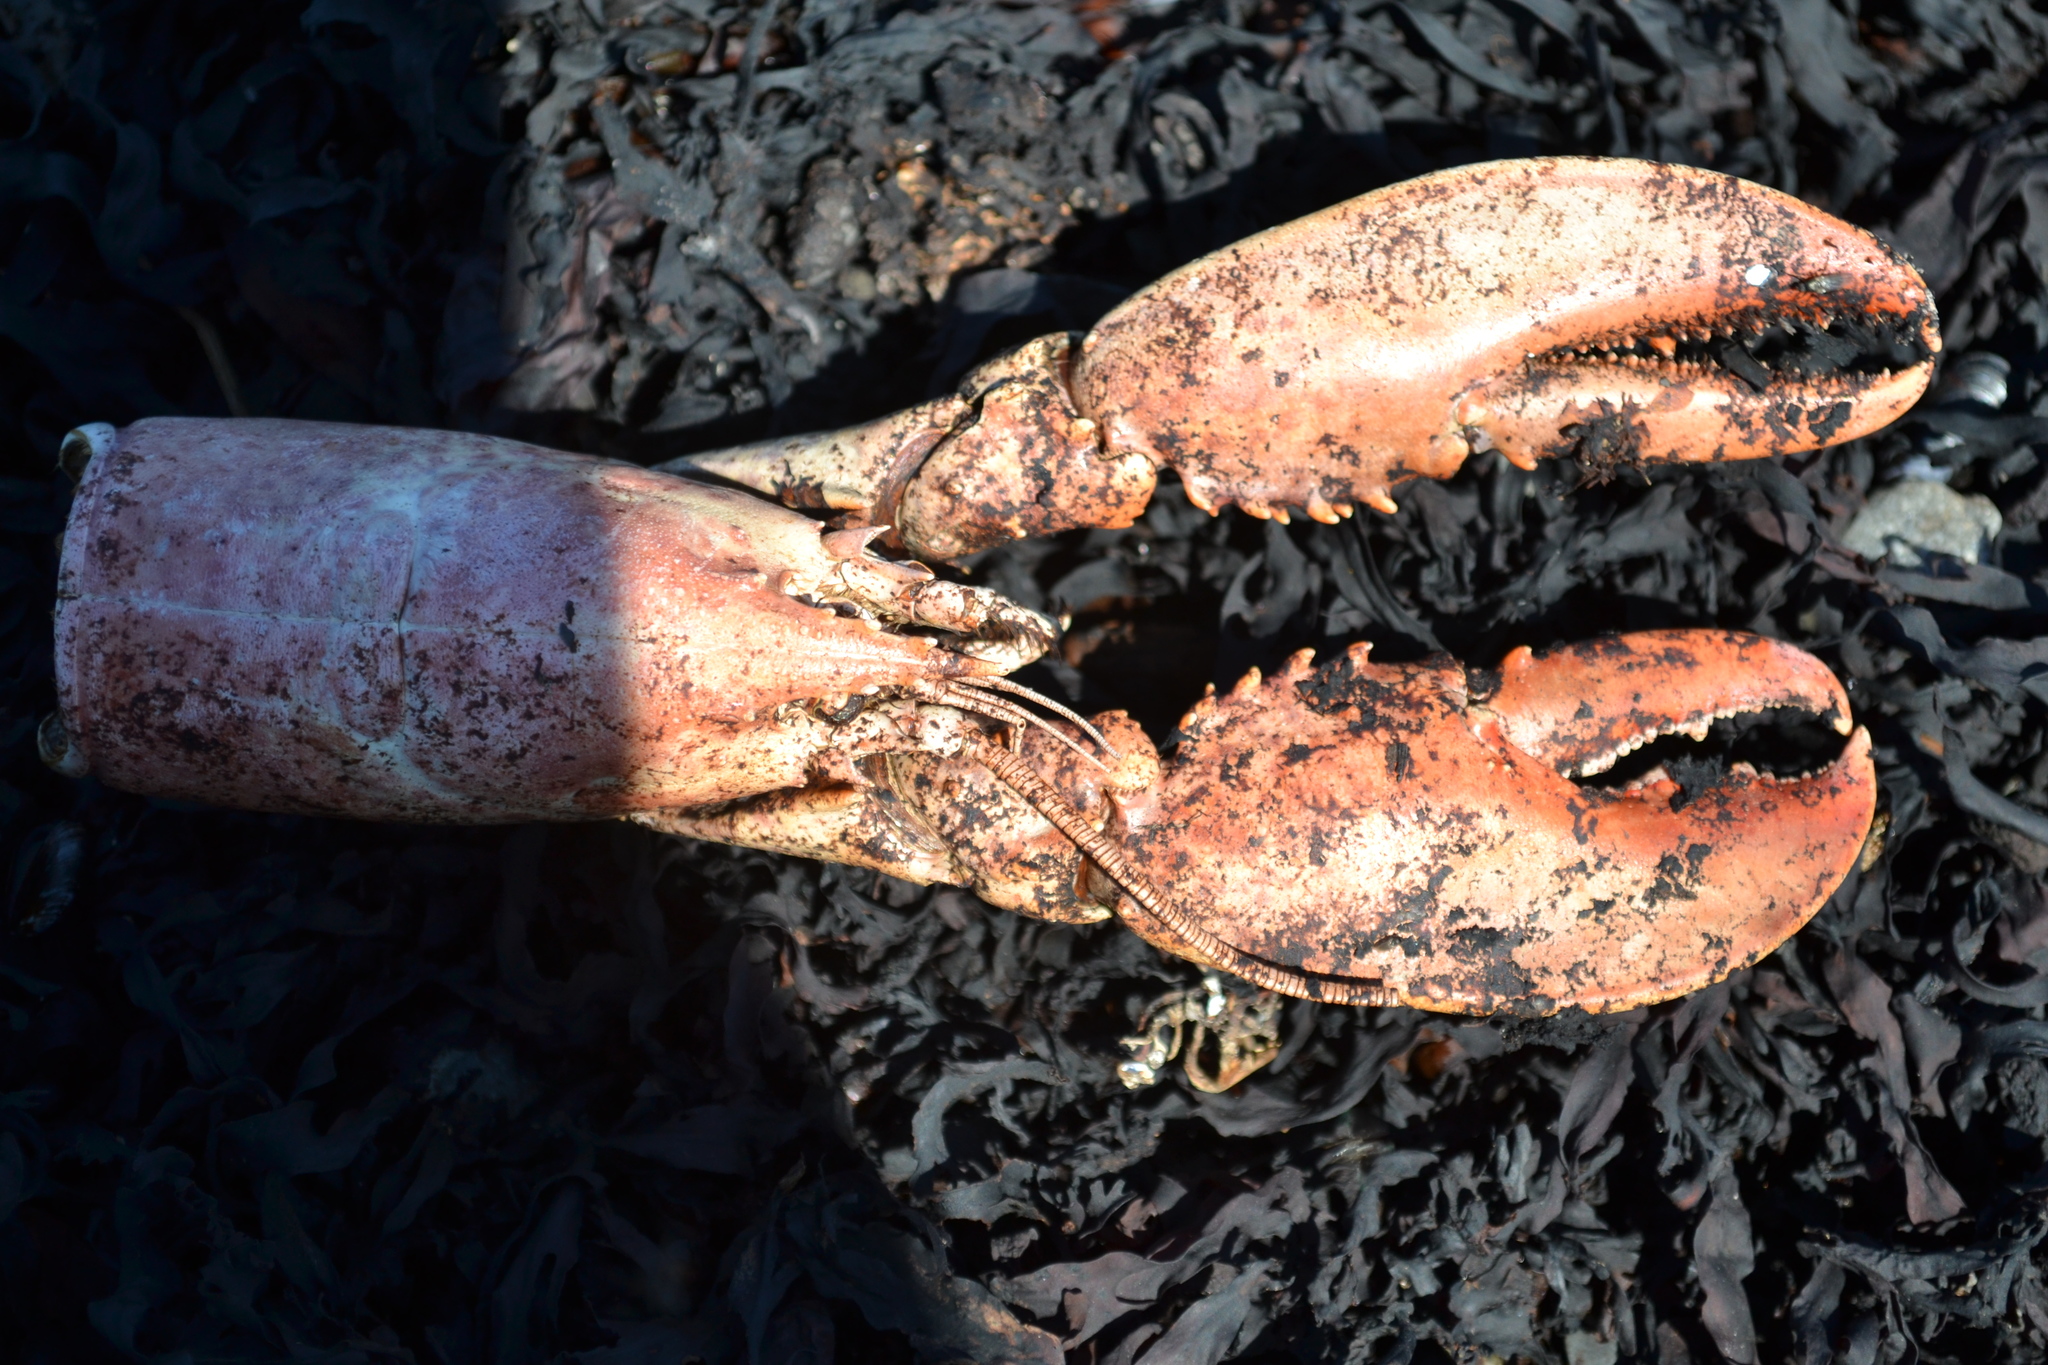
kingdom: Animalia
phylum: Arthropoda
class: Malacostraca
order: Decapoda
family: Nephropidae
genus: Homarus
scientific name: Homarus americanus
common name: American lobster
